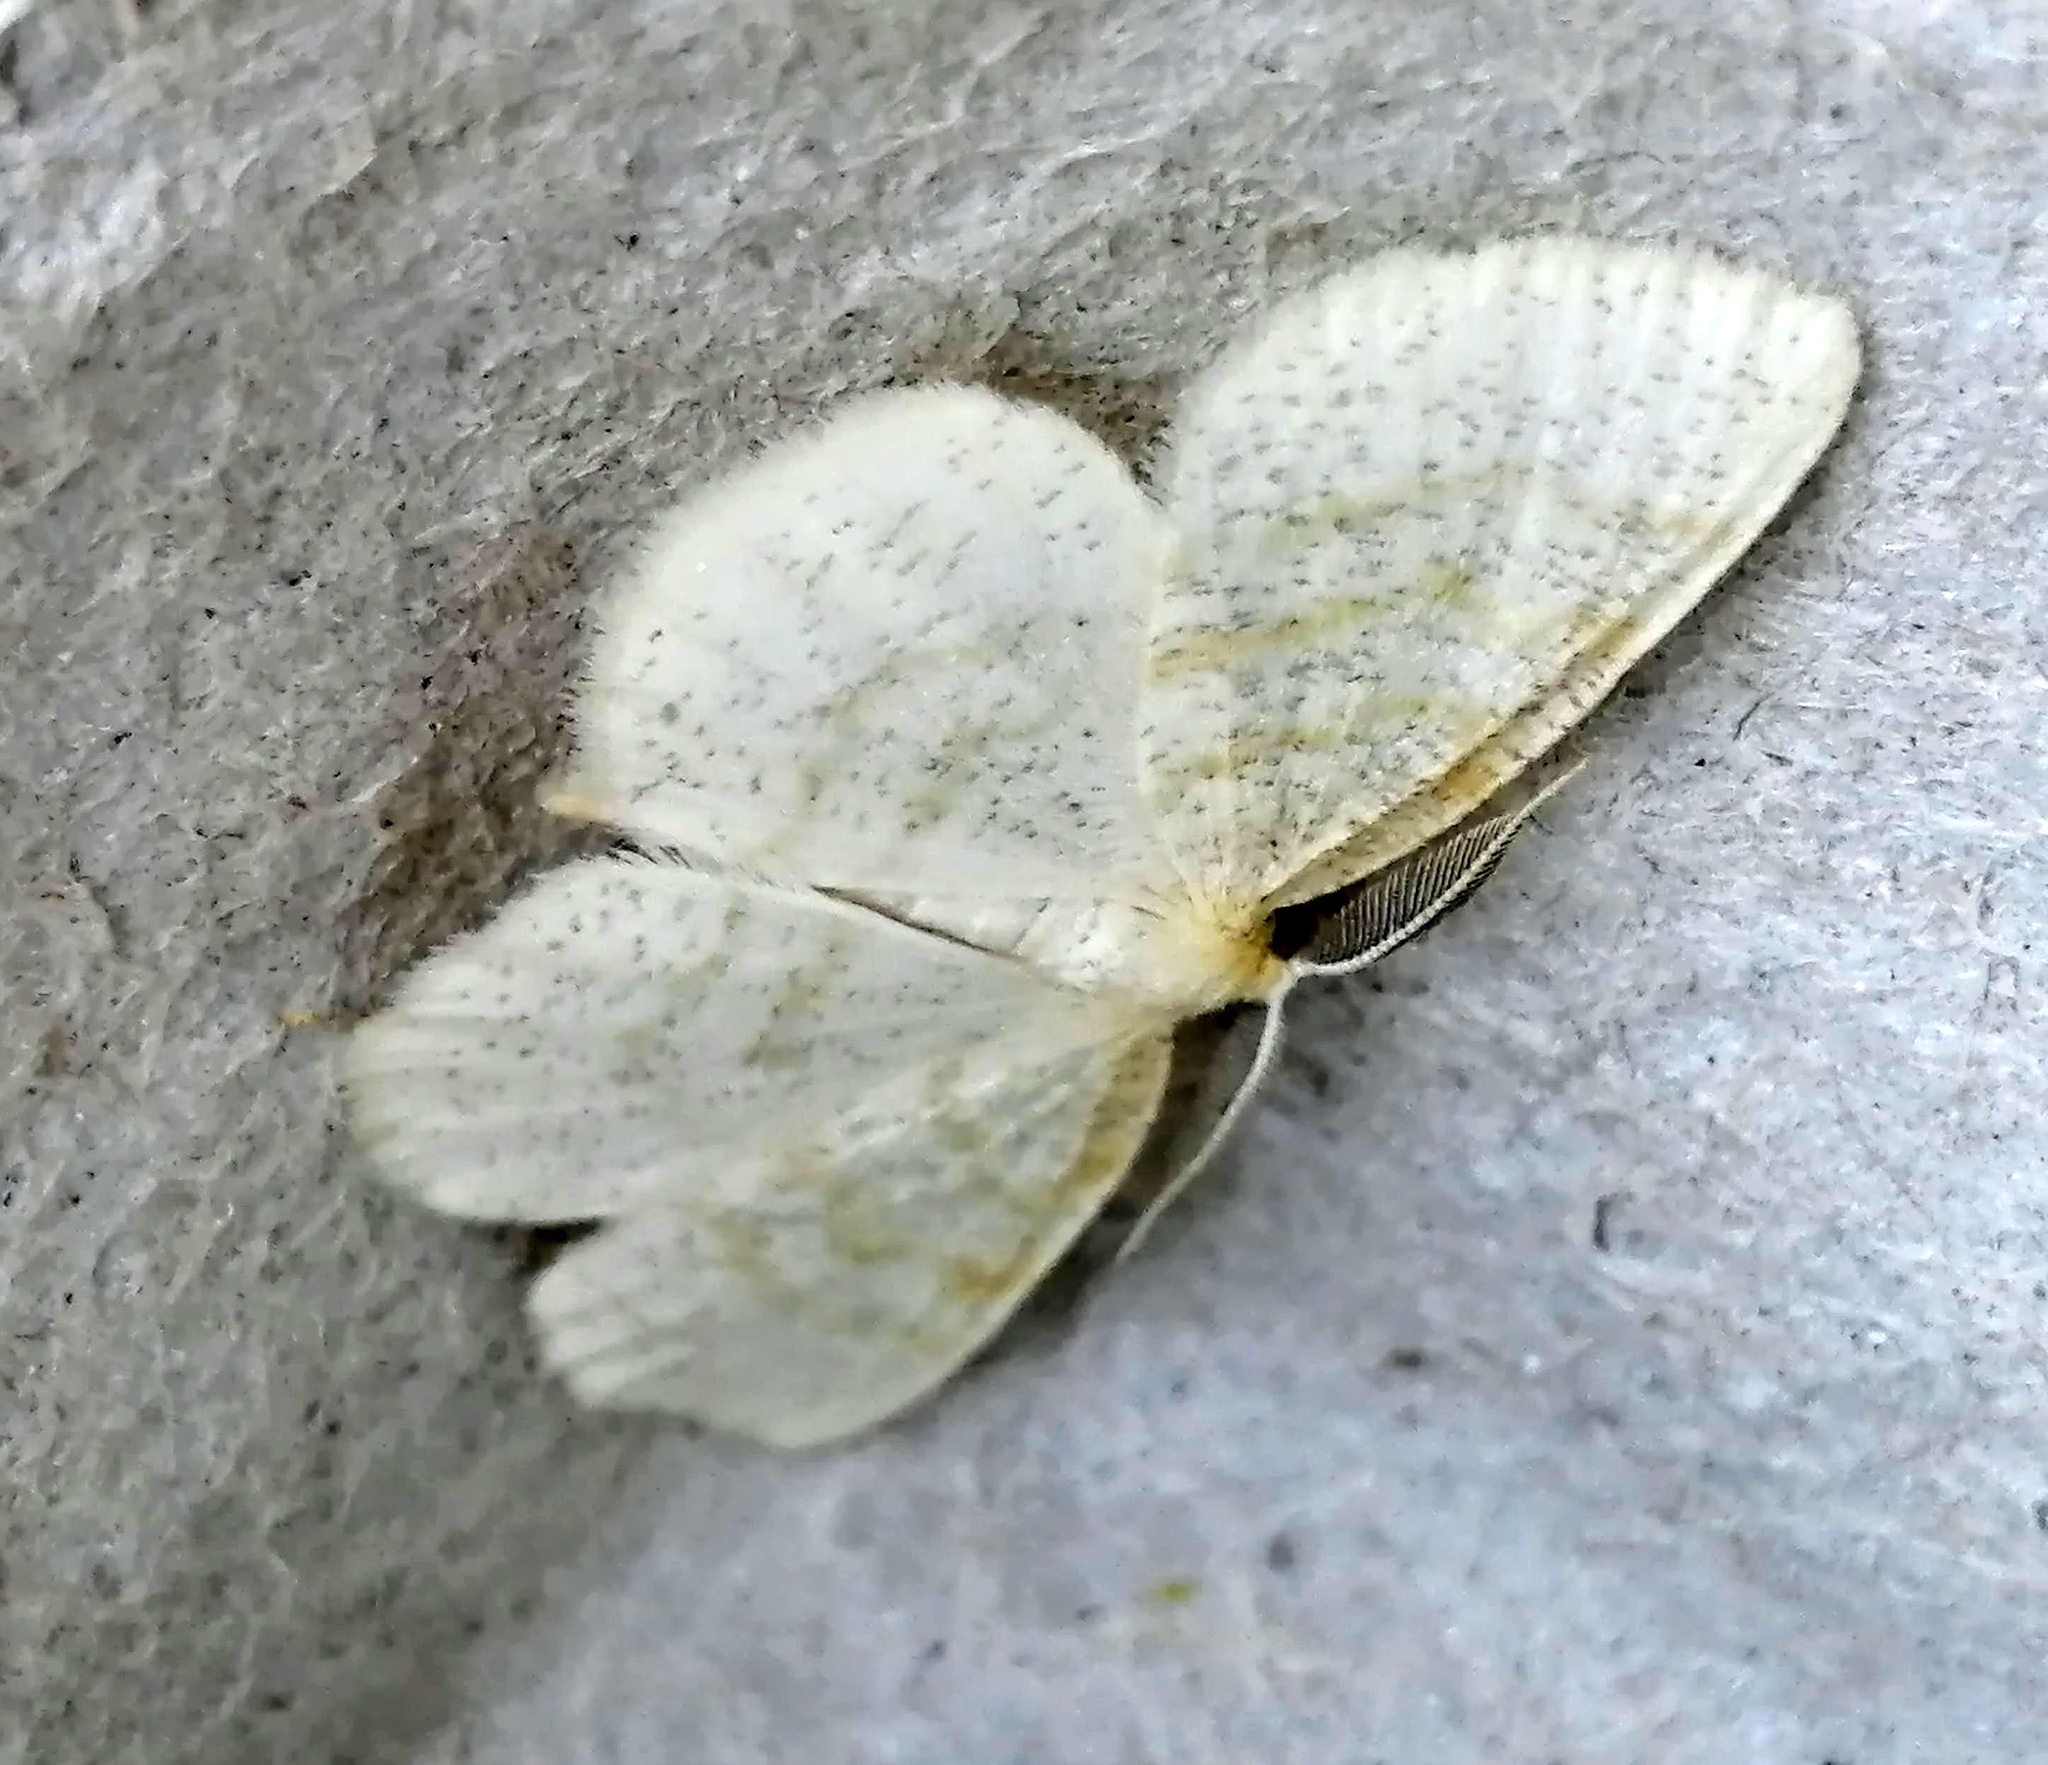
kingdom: Animalia
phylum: Arthropoda
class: Insecta
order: Lepidoptera
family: Geometridae
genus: Cabera
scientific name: Cabera erythemaria
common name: Yellow-dusted cream moth
